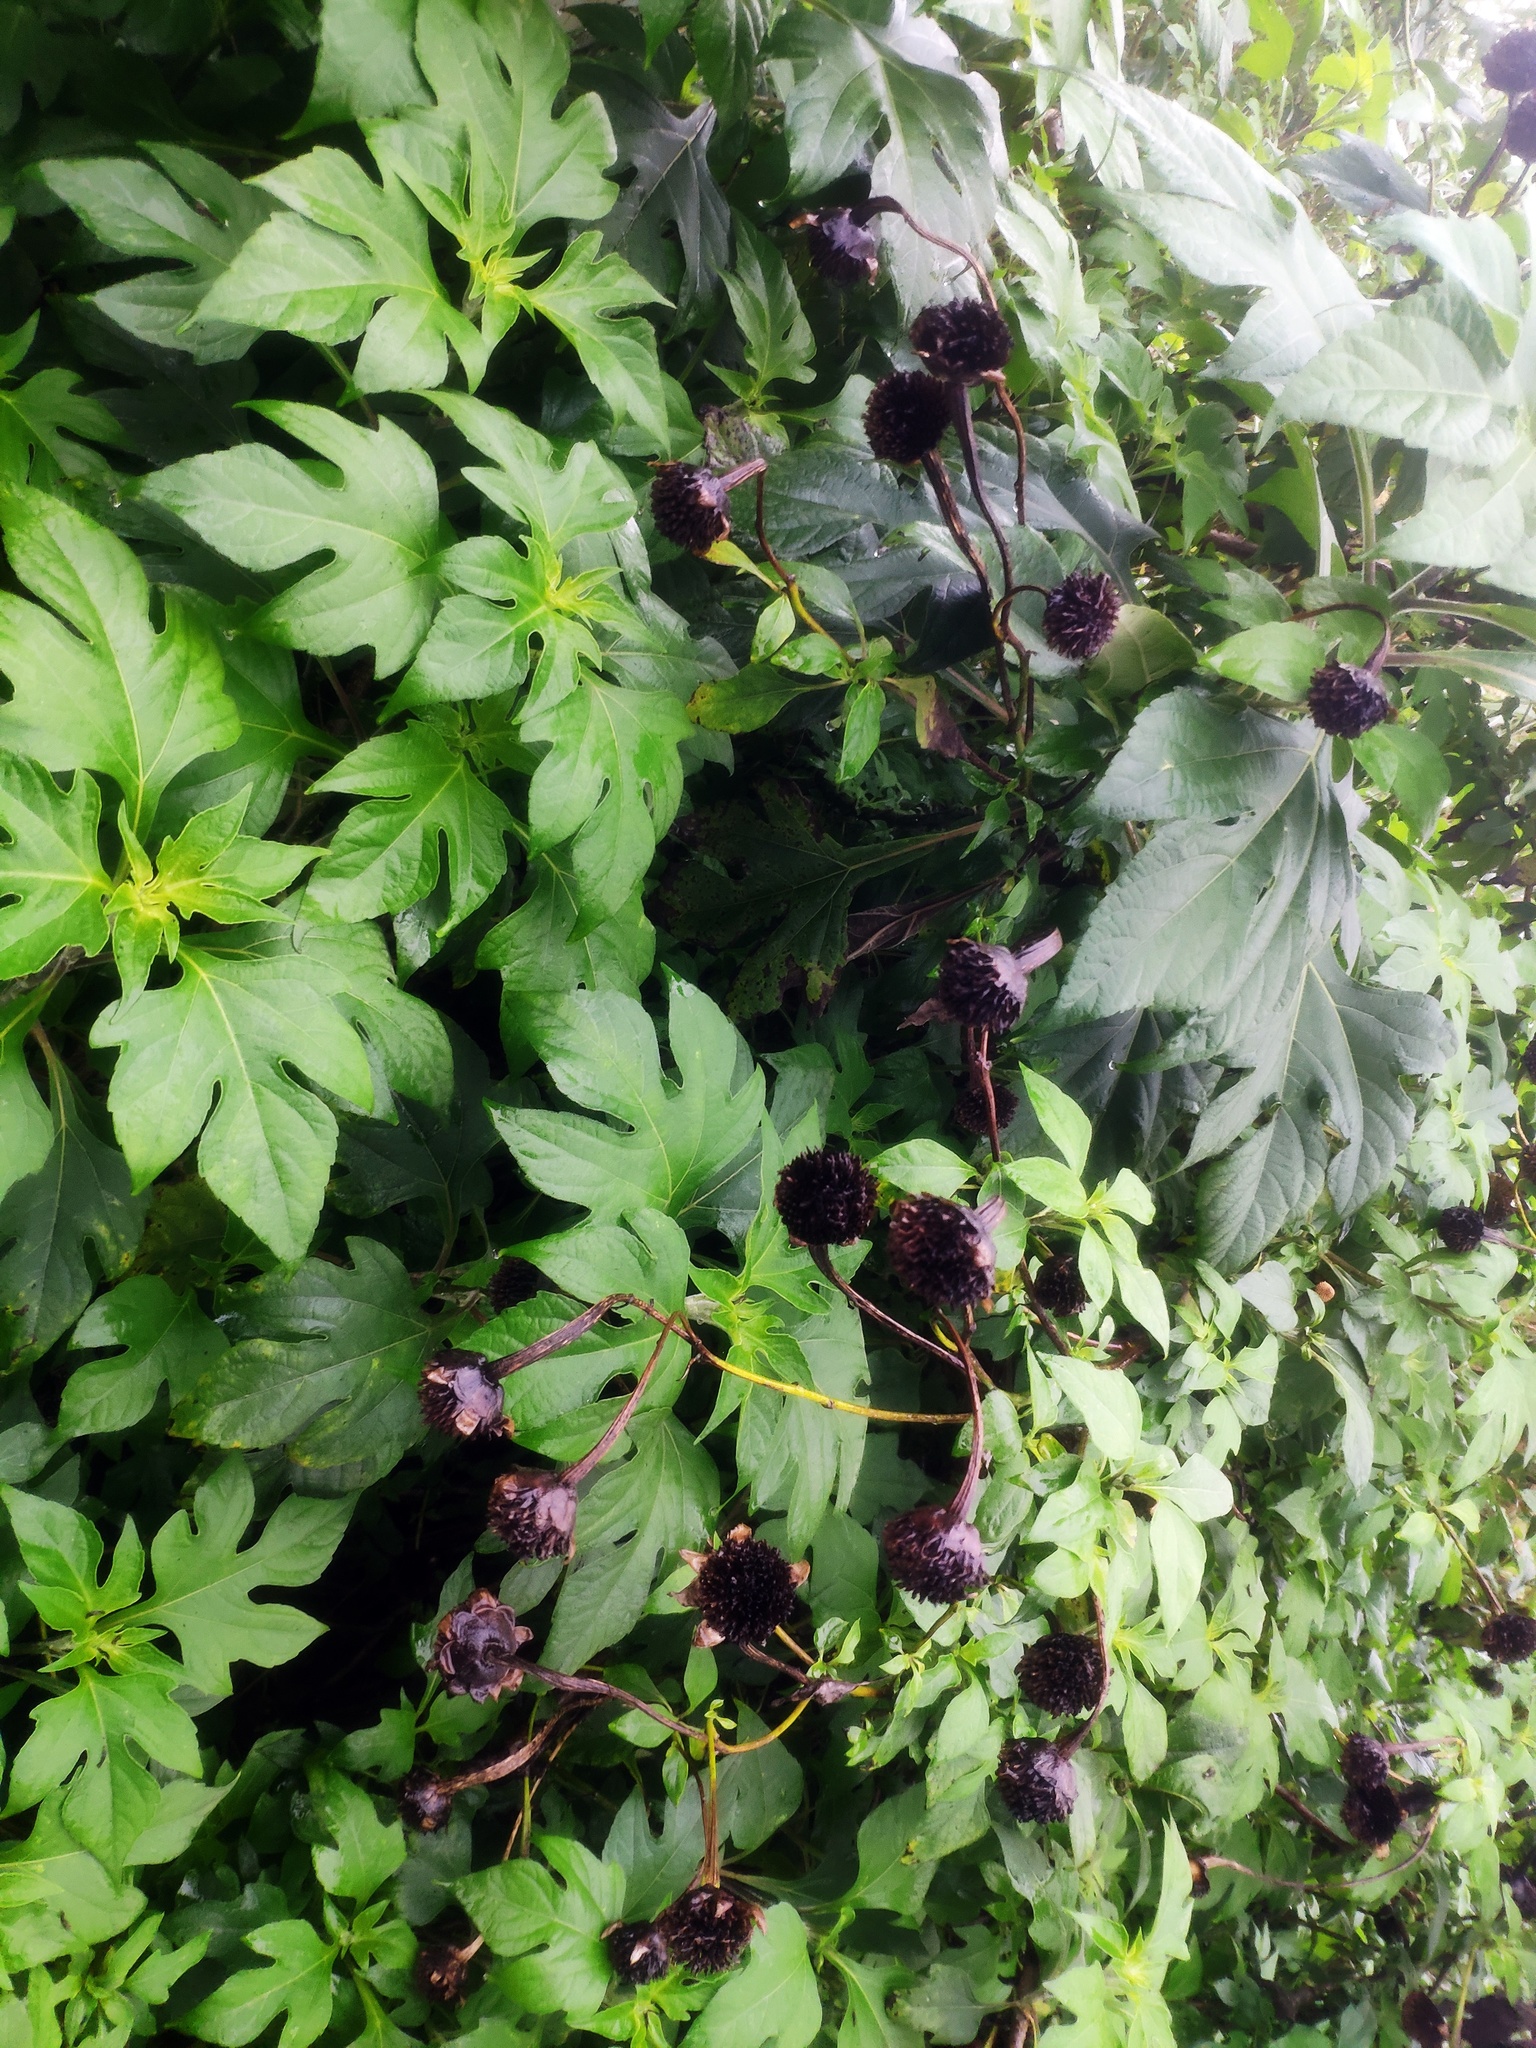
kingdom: Plantae
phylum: Tracheophyta
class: Magnoliopsida
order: Asterales
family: Asteraceae
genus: Tithonia
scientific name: Tithonia diversifolia
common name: Tree marigold
